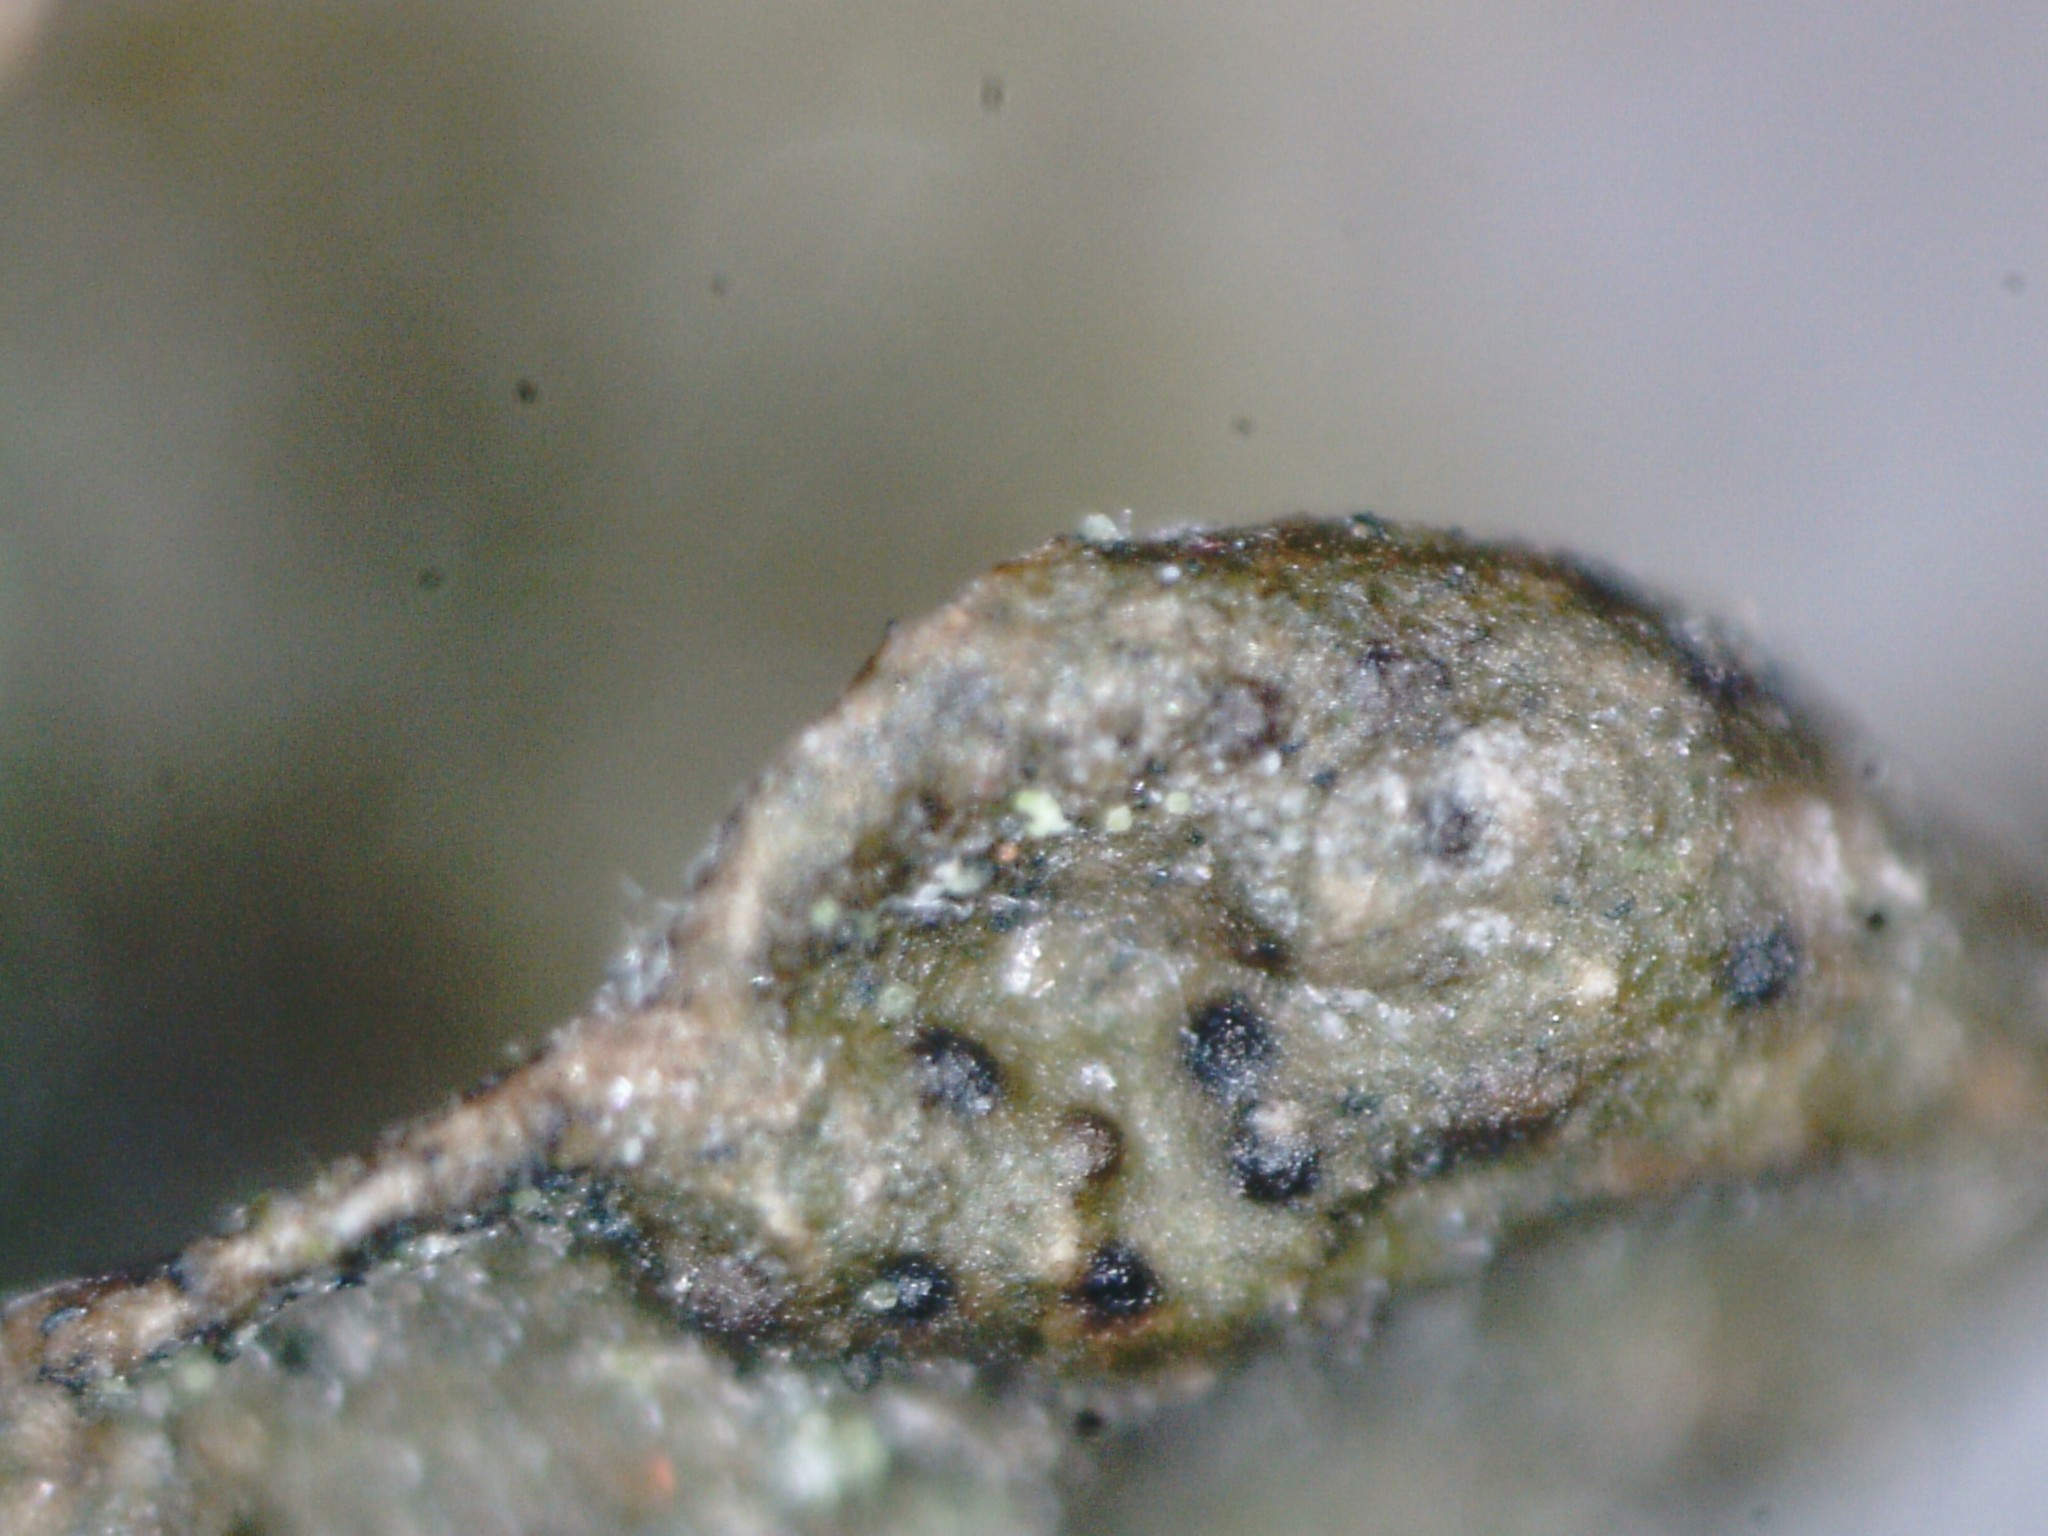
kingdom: Fungi
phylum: Ascomycota
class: Lecanoromycetes
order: Lecanorales
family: Parmeliaceae
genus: Melanohalea
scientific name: Melanohalea exasperata
